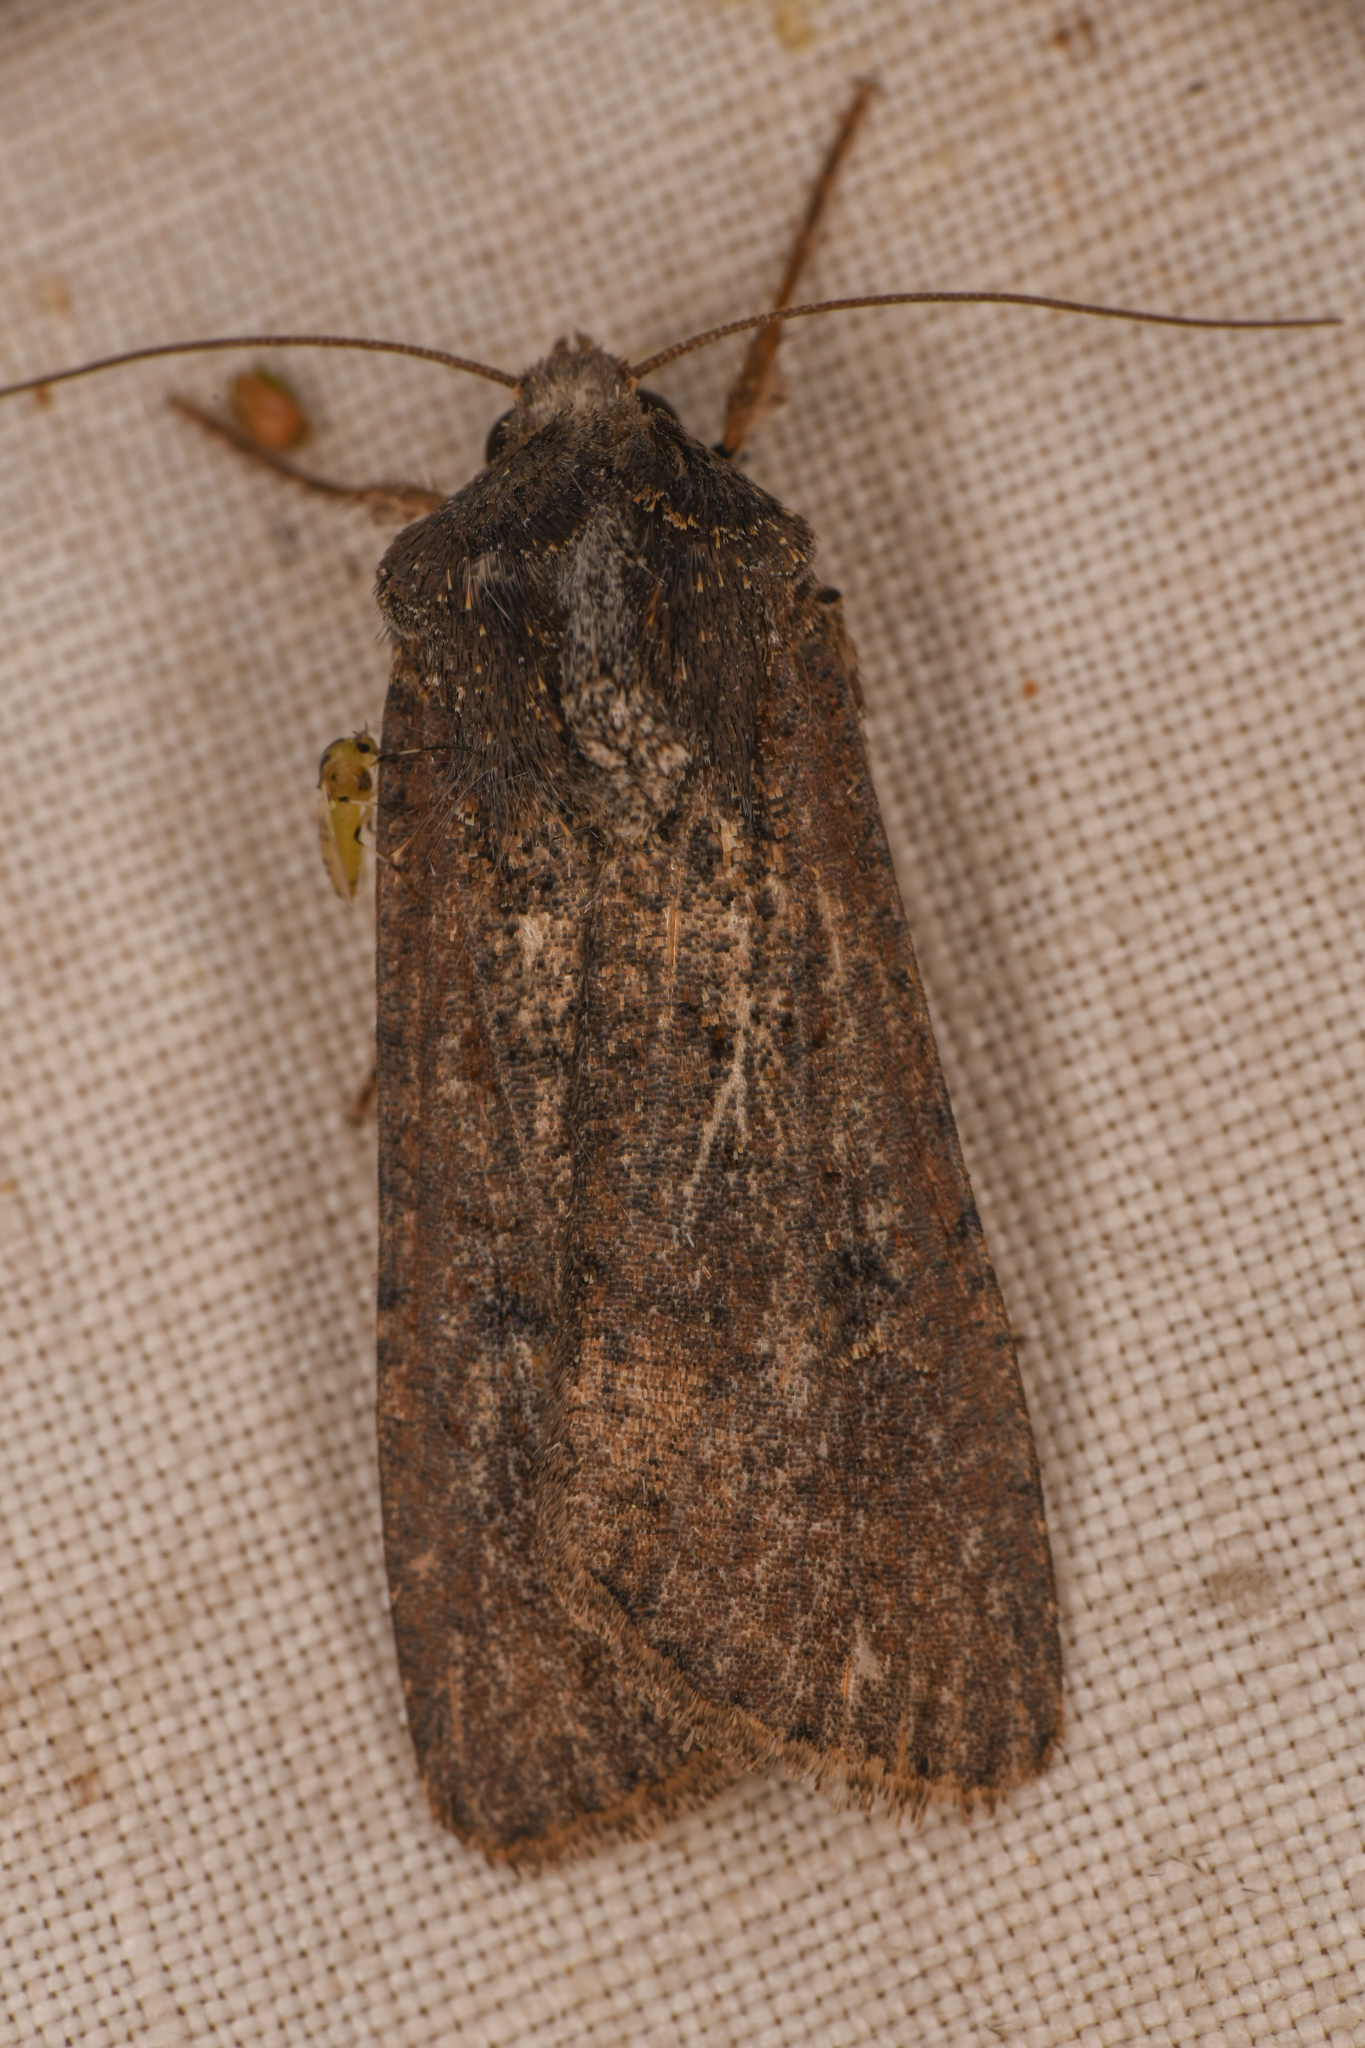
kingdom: Animalia
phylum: Arthropoda
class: Insecta
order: Lepidoptera
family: Noctuidae
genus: Peridroma
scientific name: Peridroma saucia
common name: Pearly underwing
